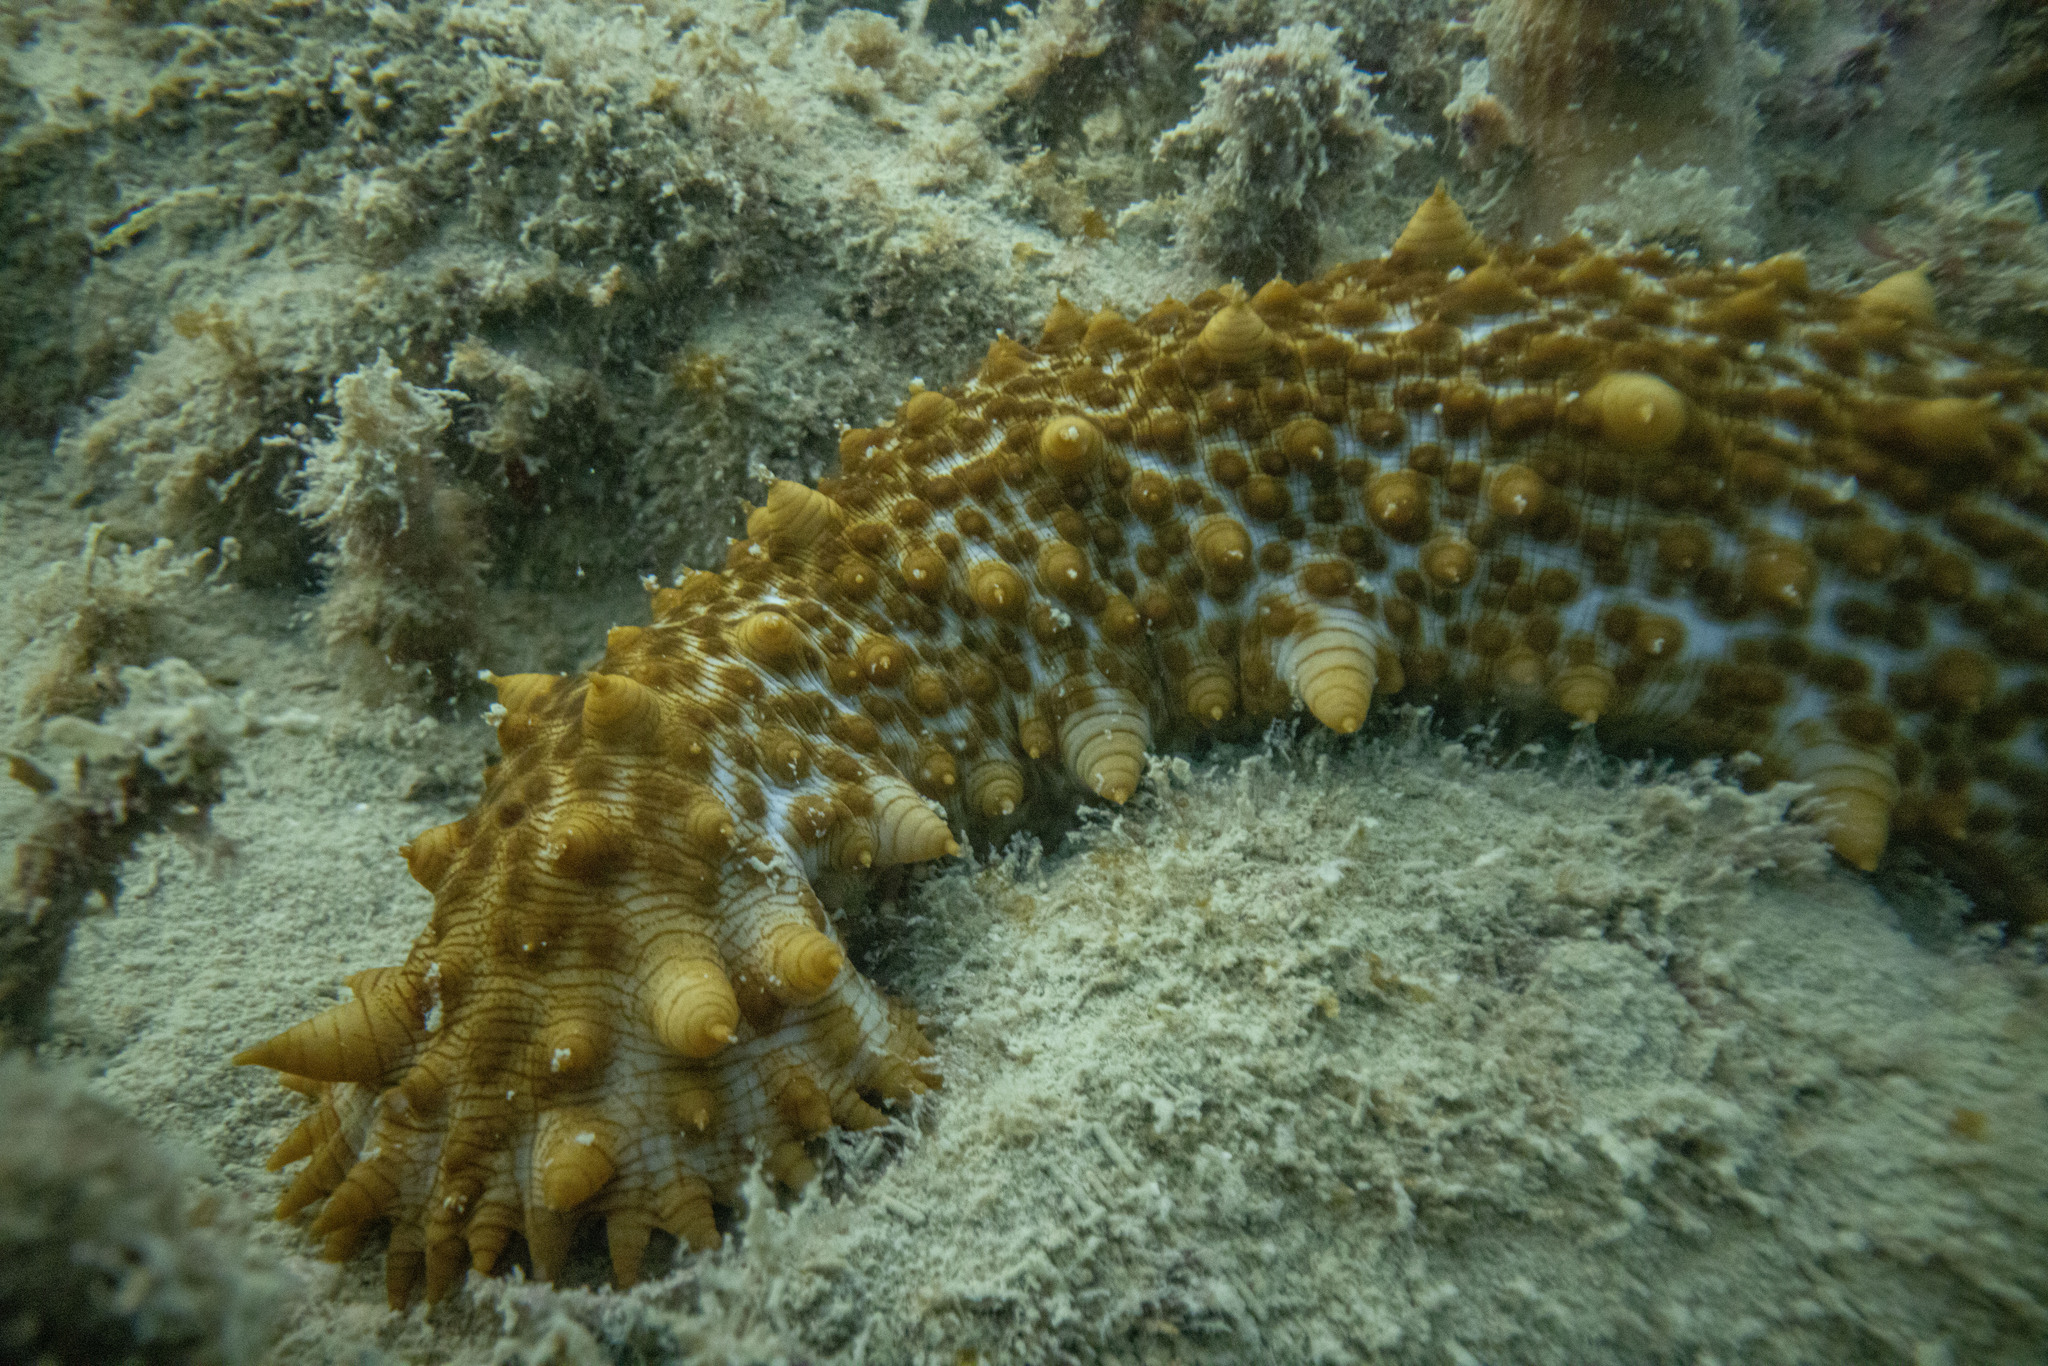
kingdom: Animalia
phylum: Echinodermata
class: Holothuroidea
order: Synallactida
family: Stichopodidae
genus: Australostichopus
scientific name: Australostichopus mollis
